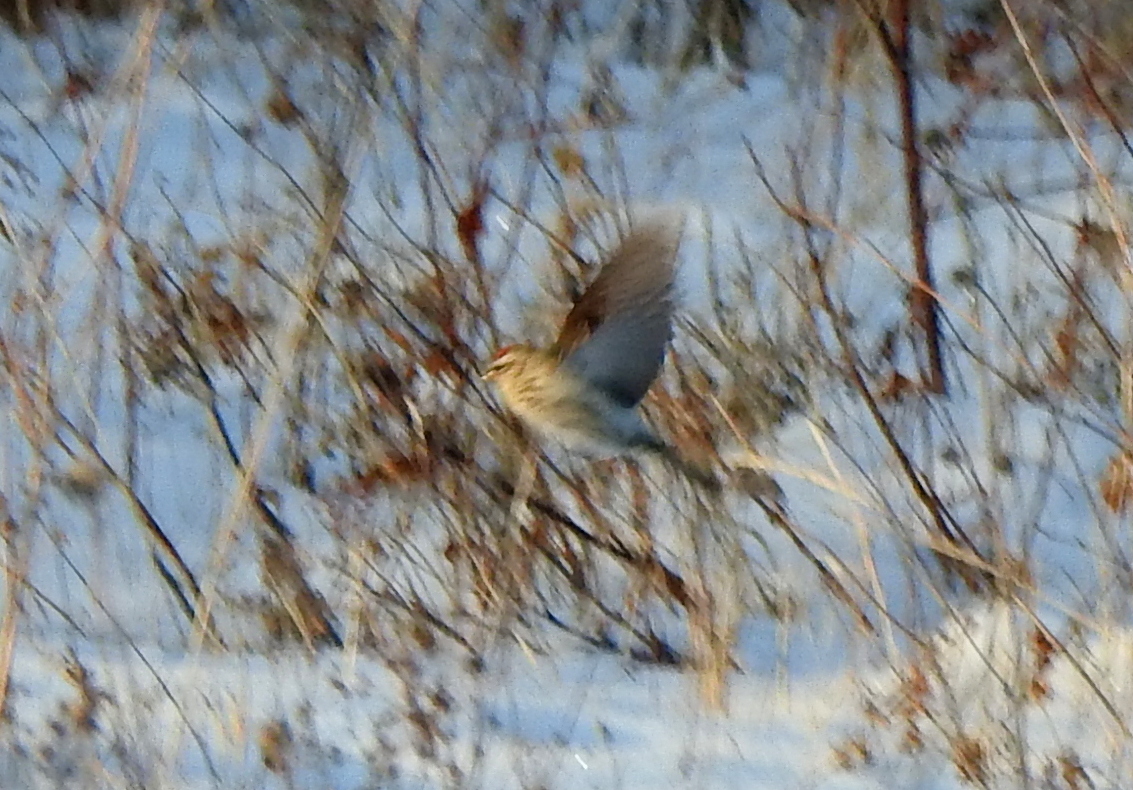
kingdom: Animalia
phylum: Chordata
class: Aves
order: Passeriformes
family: Fringillidae
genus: Acanthis
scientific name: Acanthis flammea
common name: Common redpoll
